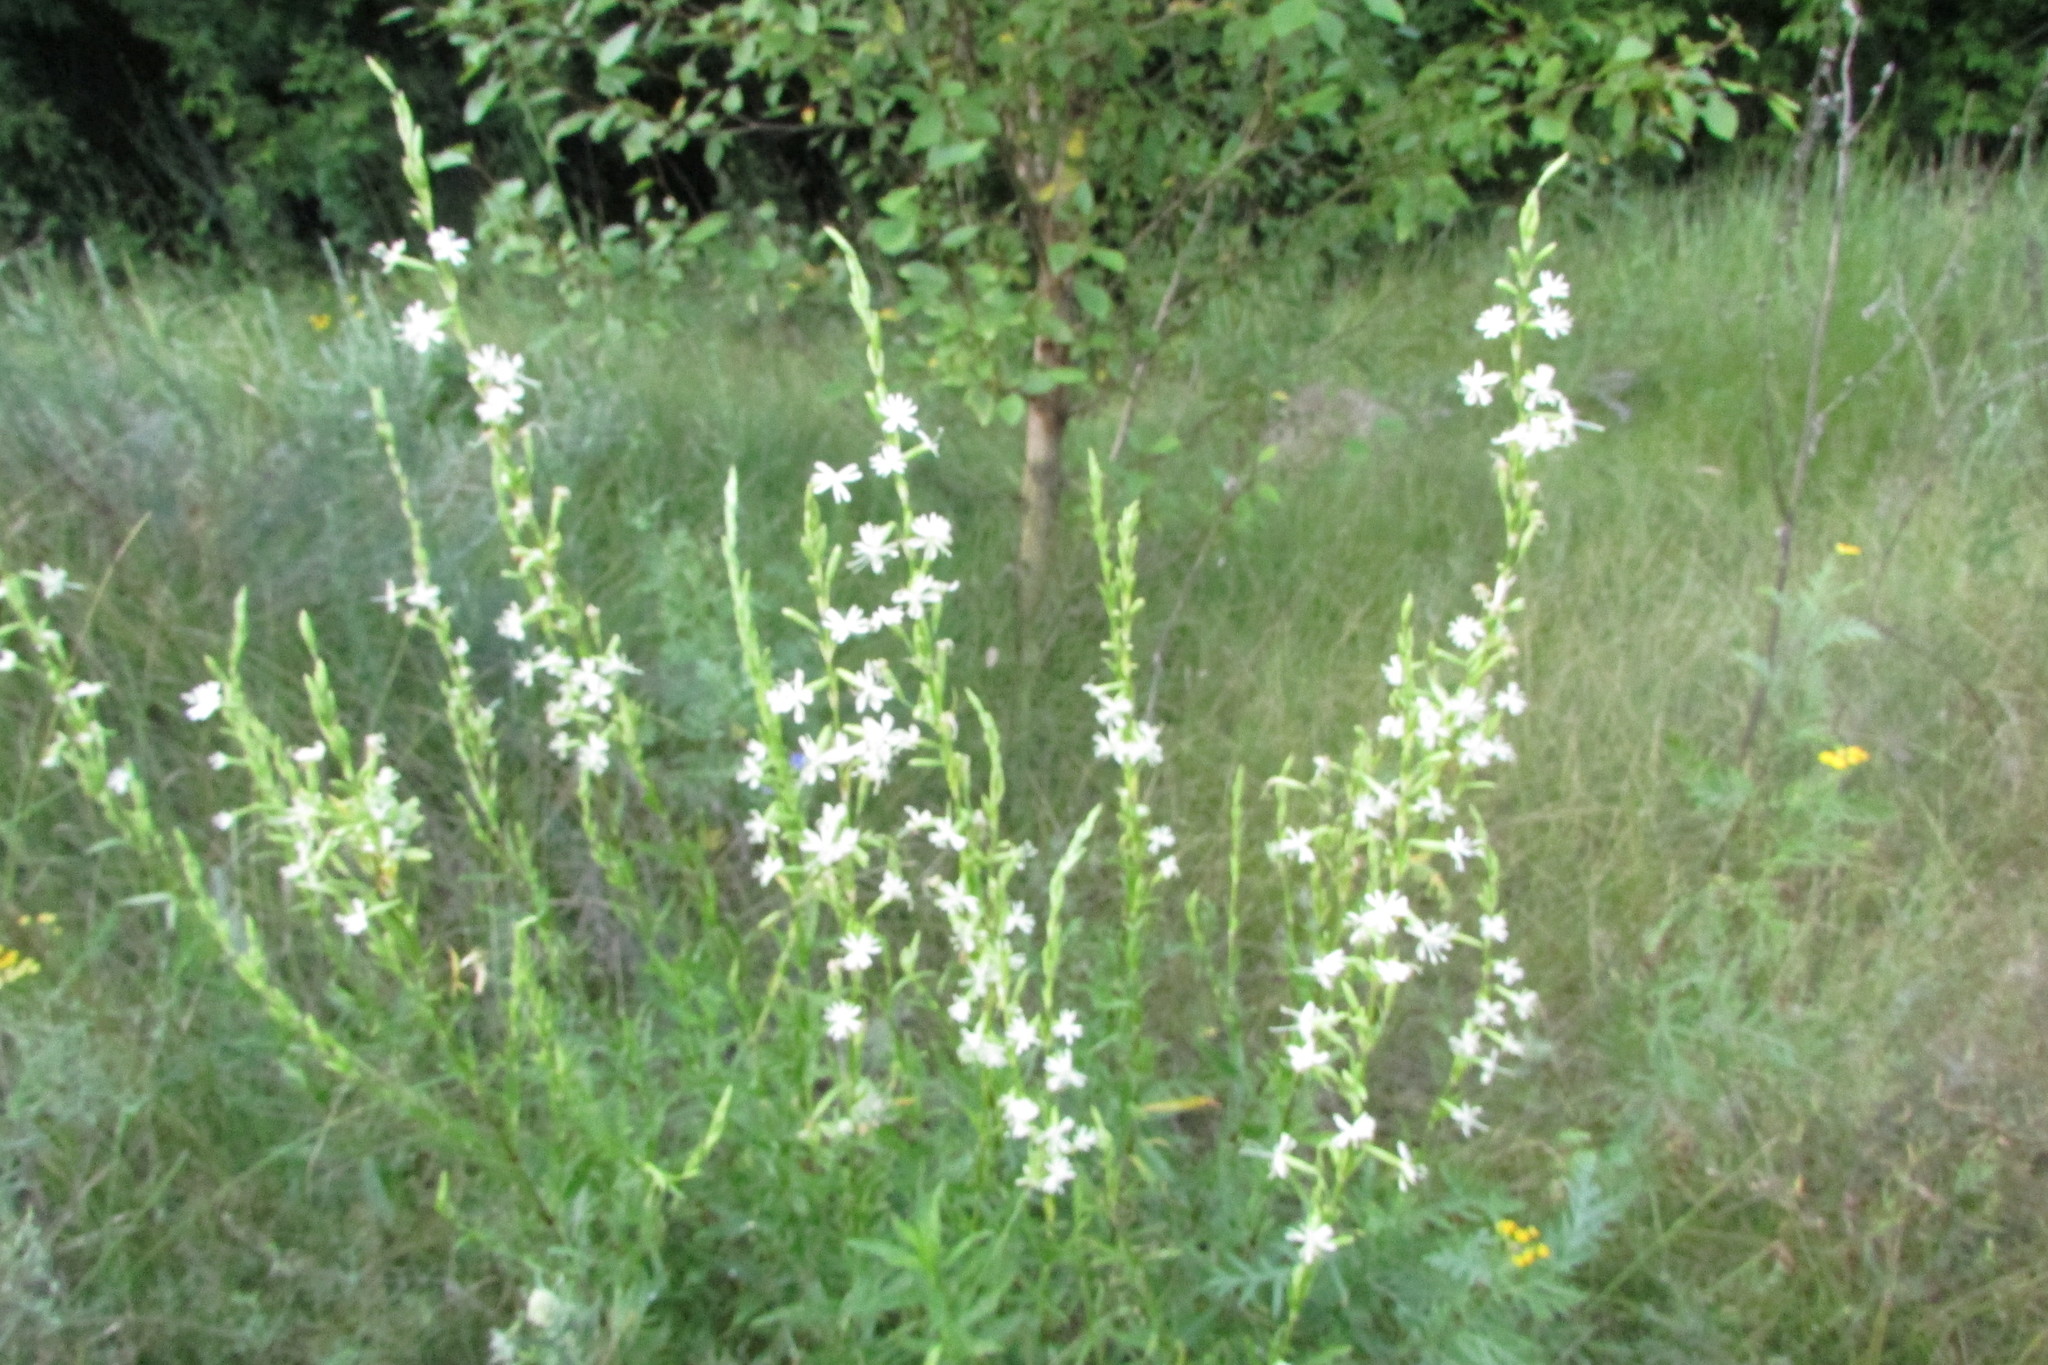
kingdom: Plantae
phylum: Tracheophyta
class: Magnoliopsida
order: Caryophyllales
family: Caryophyllaceae
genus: Silene
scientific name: Silene tatarica
